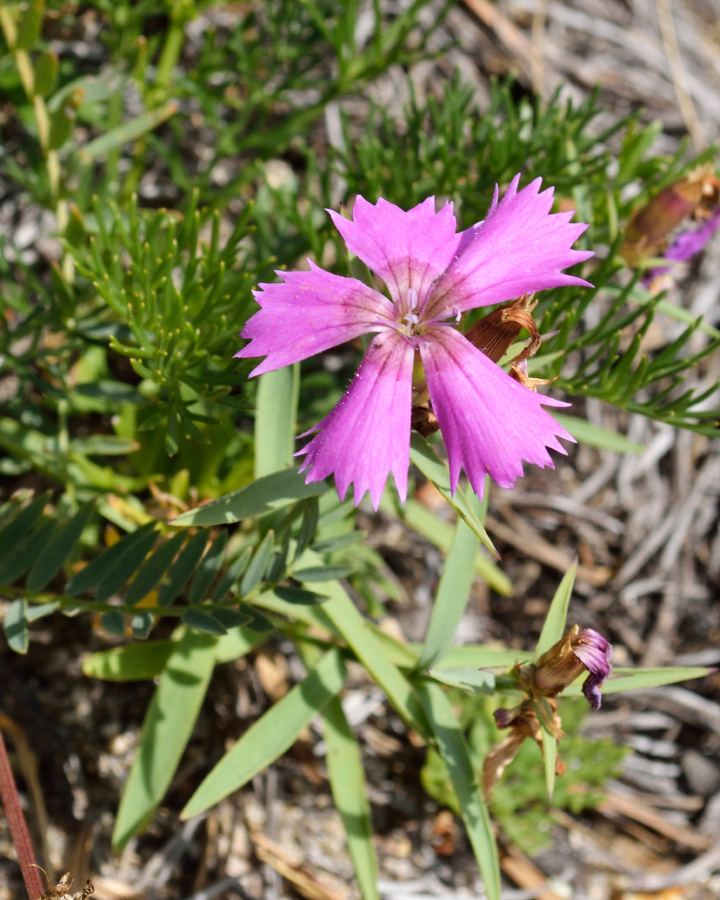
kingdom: Plantae
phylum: Tracheophyta
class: Magnoliopsida
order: Caryophyllales
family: Caryophyllaceae
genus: Dianthus
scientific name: Dianthus chinensis
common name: Rainbow pink
